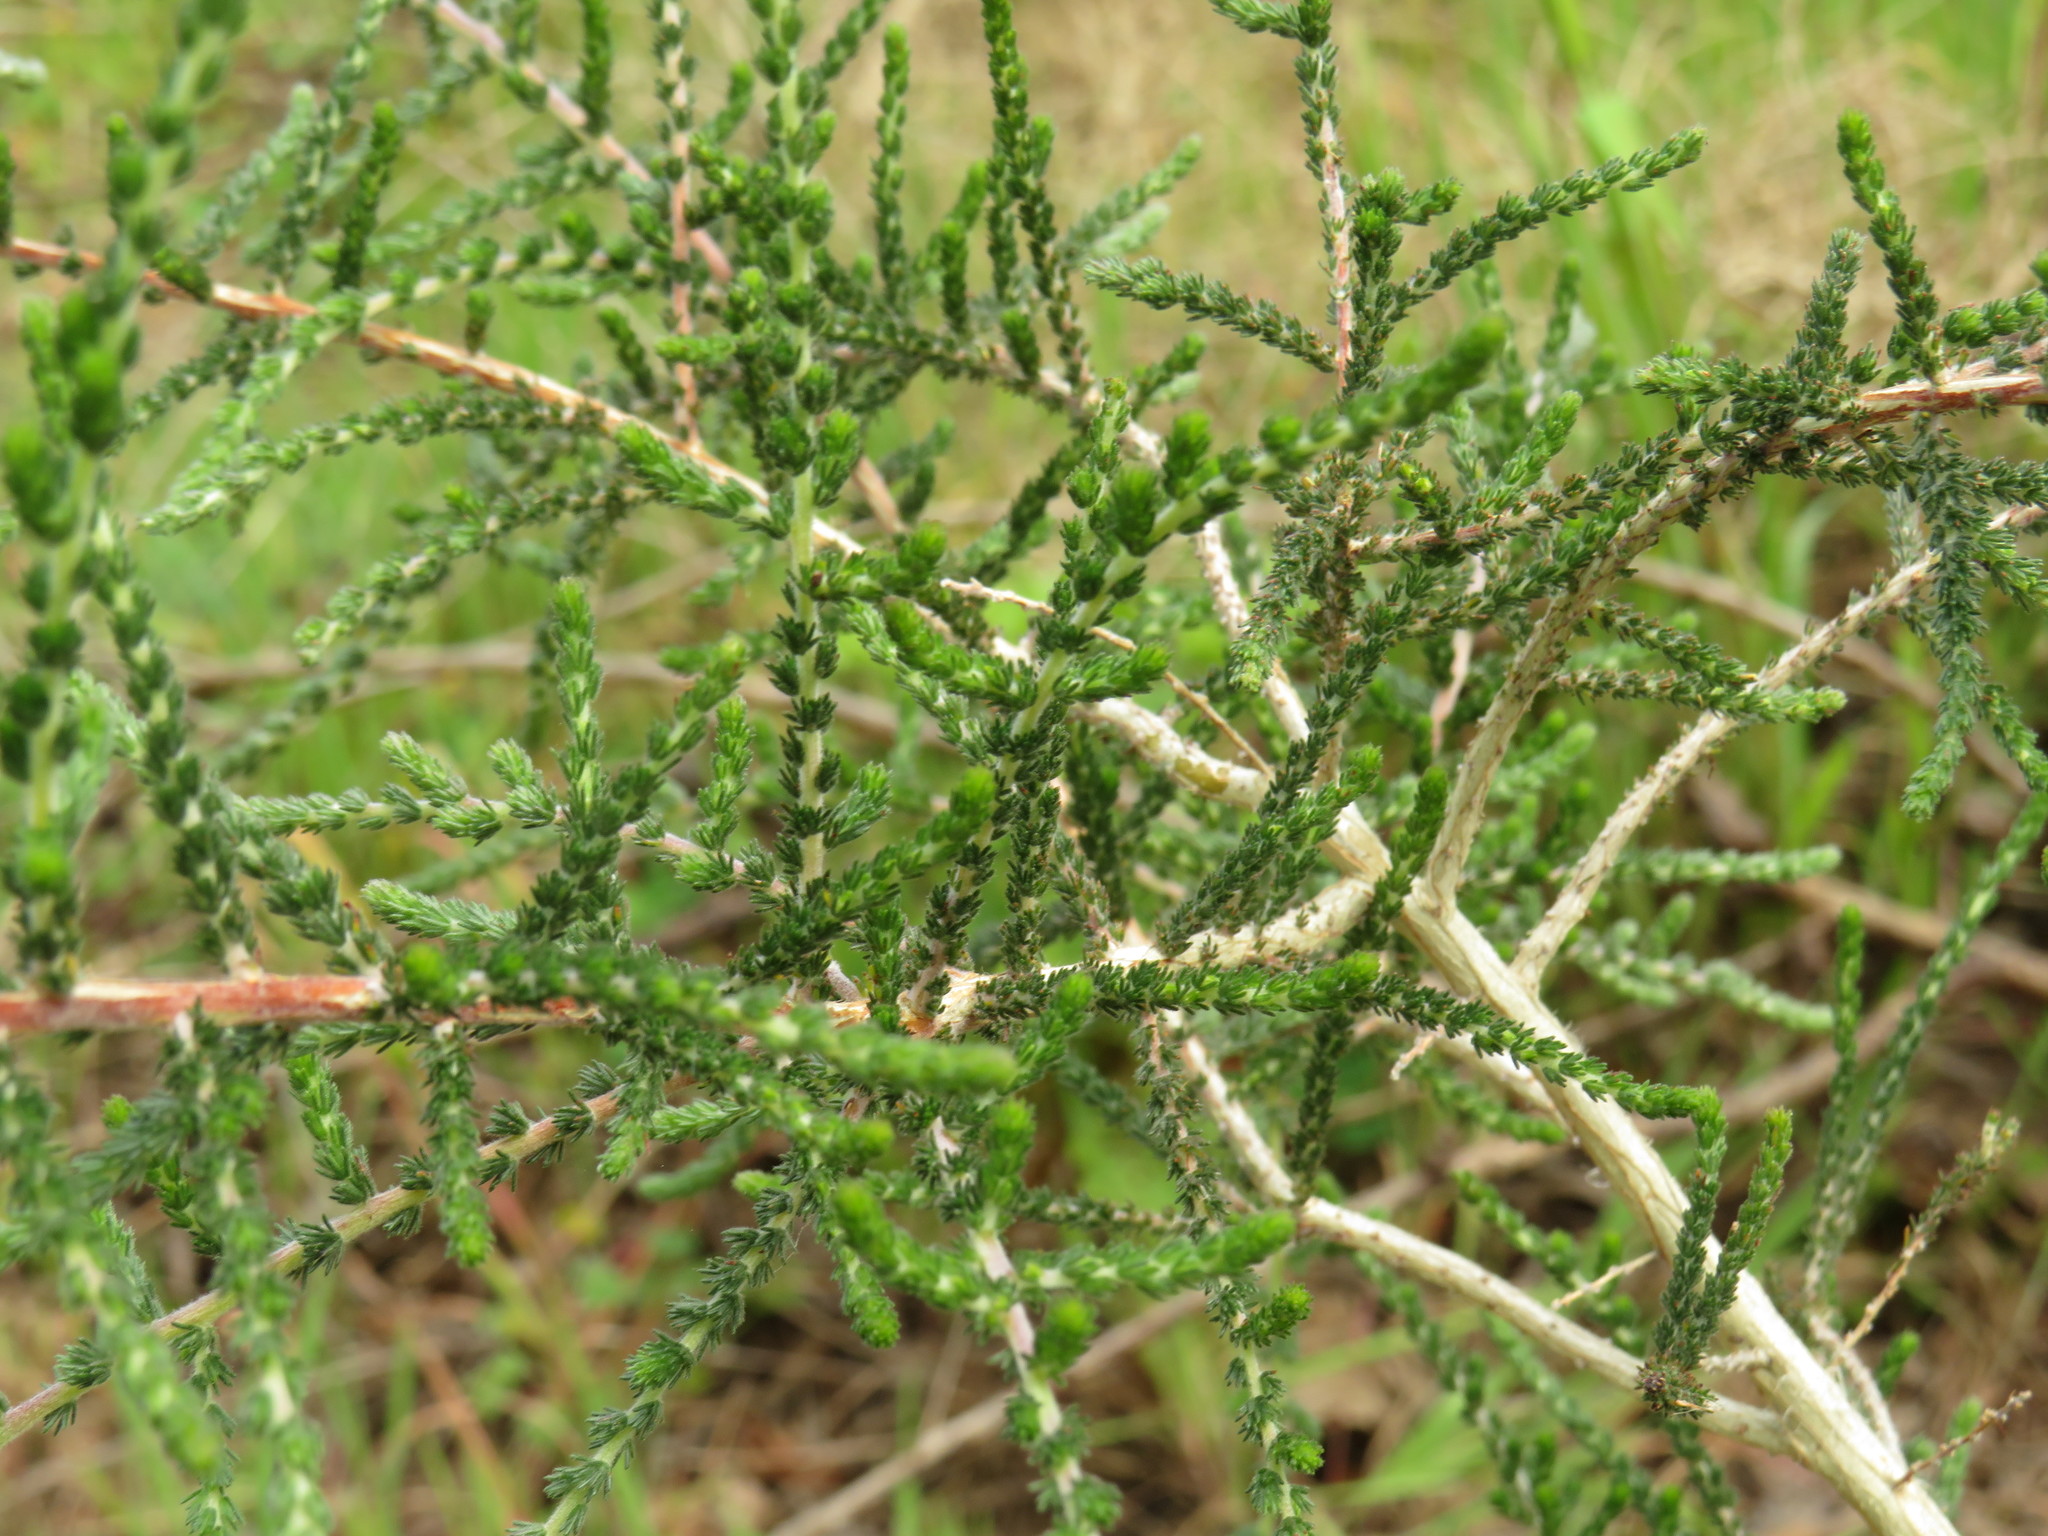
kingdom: Plantae
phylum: Tracheophyta
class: Magnoliopsida
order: Fabales
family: Fabaceae
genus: Aspalathus
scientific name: Aspalathus hispida
